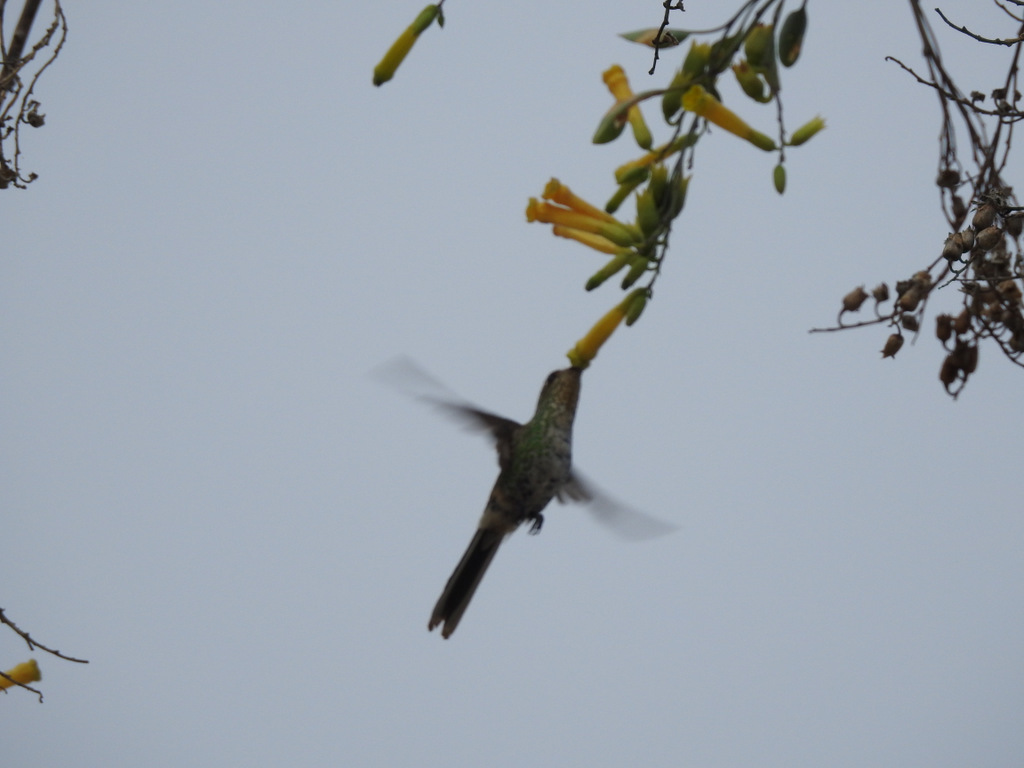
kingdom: Animalia
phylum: Chordata
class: Aves
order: Apodiformes
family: Trochilidae
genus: Sappho
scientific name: Sappho sparganurus
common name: Red-tailed comet
